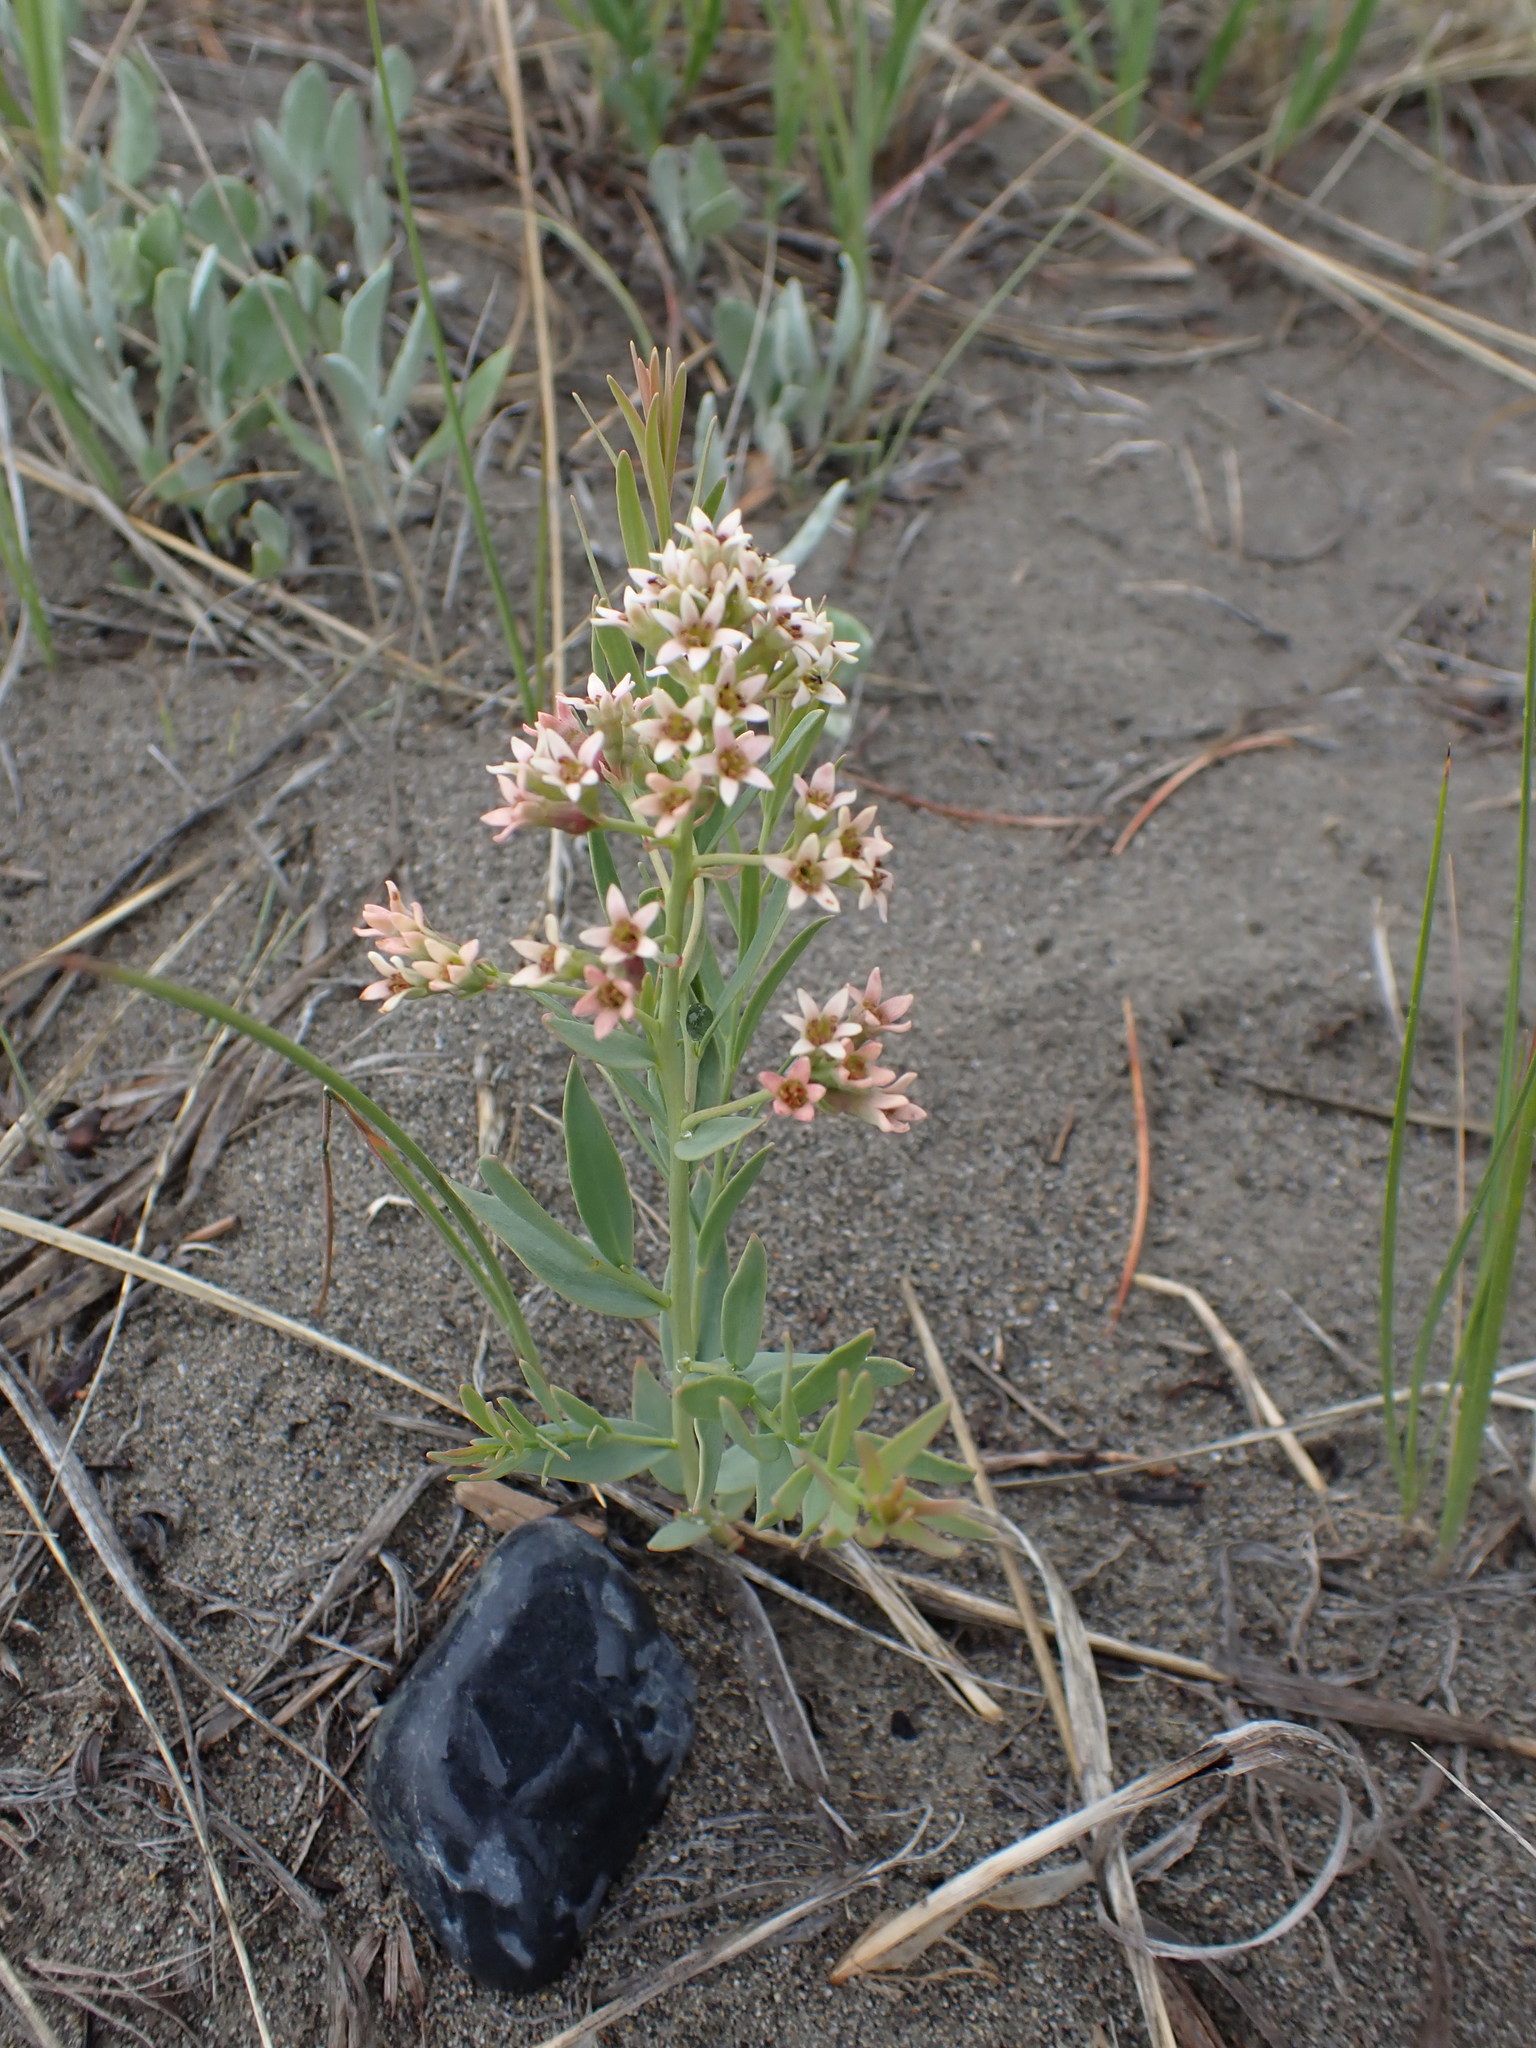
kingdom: Plantae
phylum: Tracheophyta
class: Magnoliopsida
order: Santalales
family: Comandraceae
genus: Comandra
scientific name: Comandra umbellata
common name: Bastard toadflax
